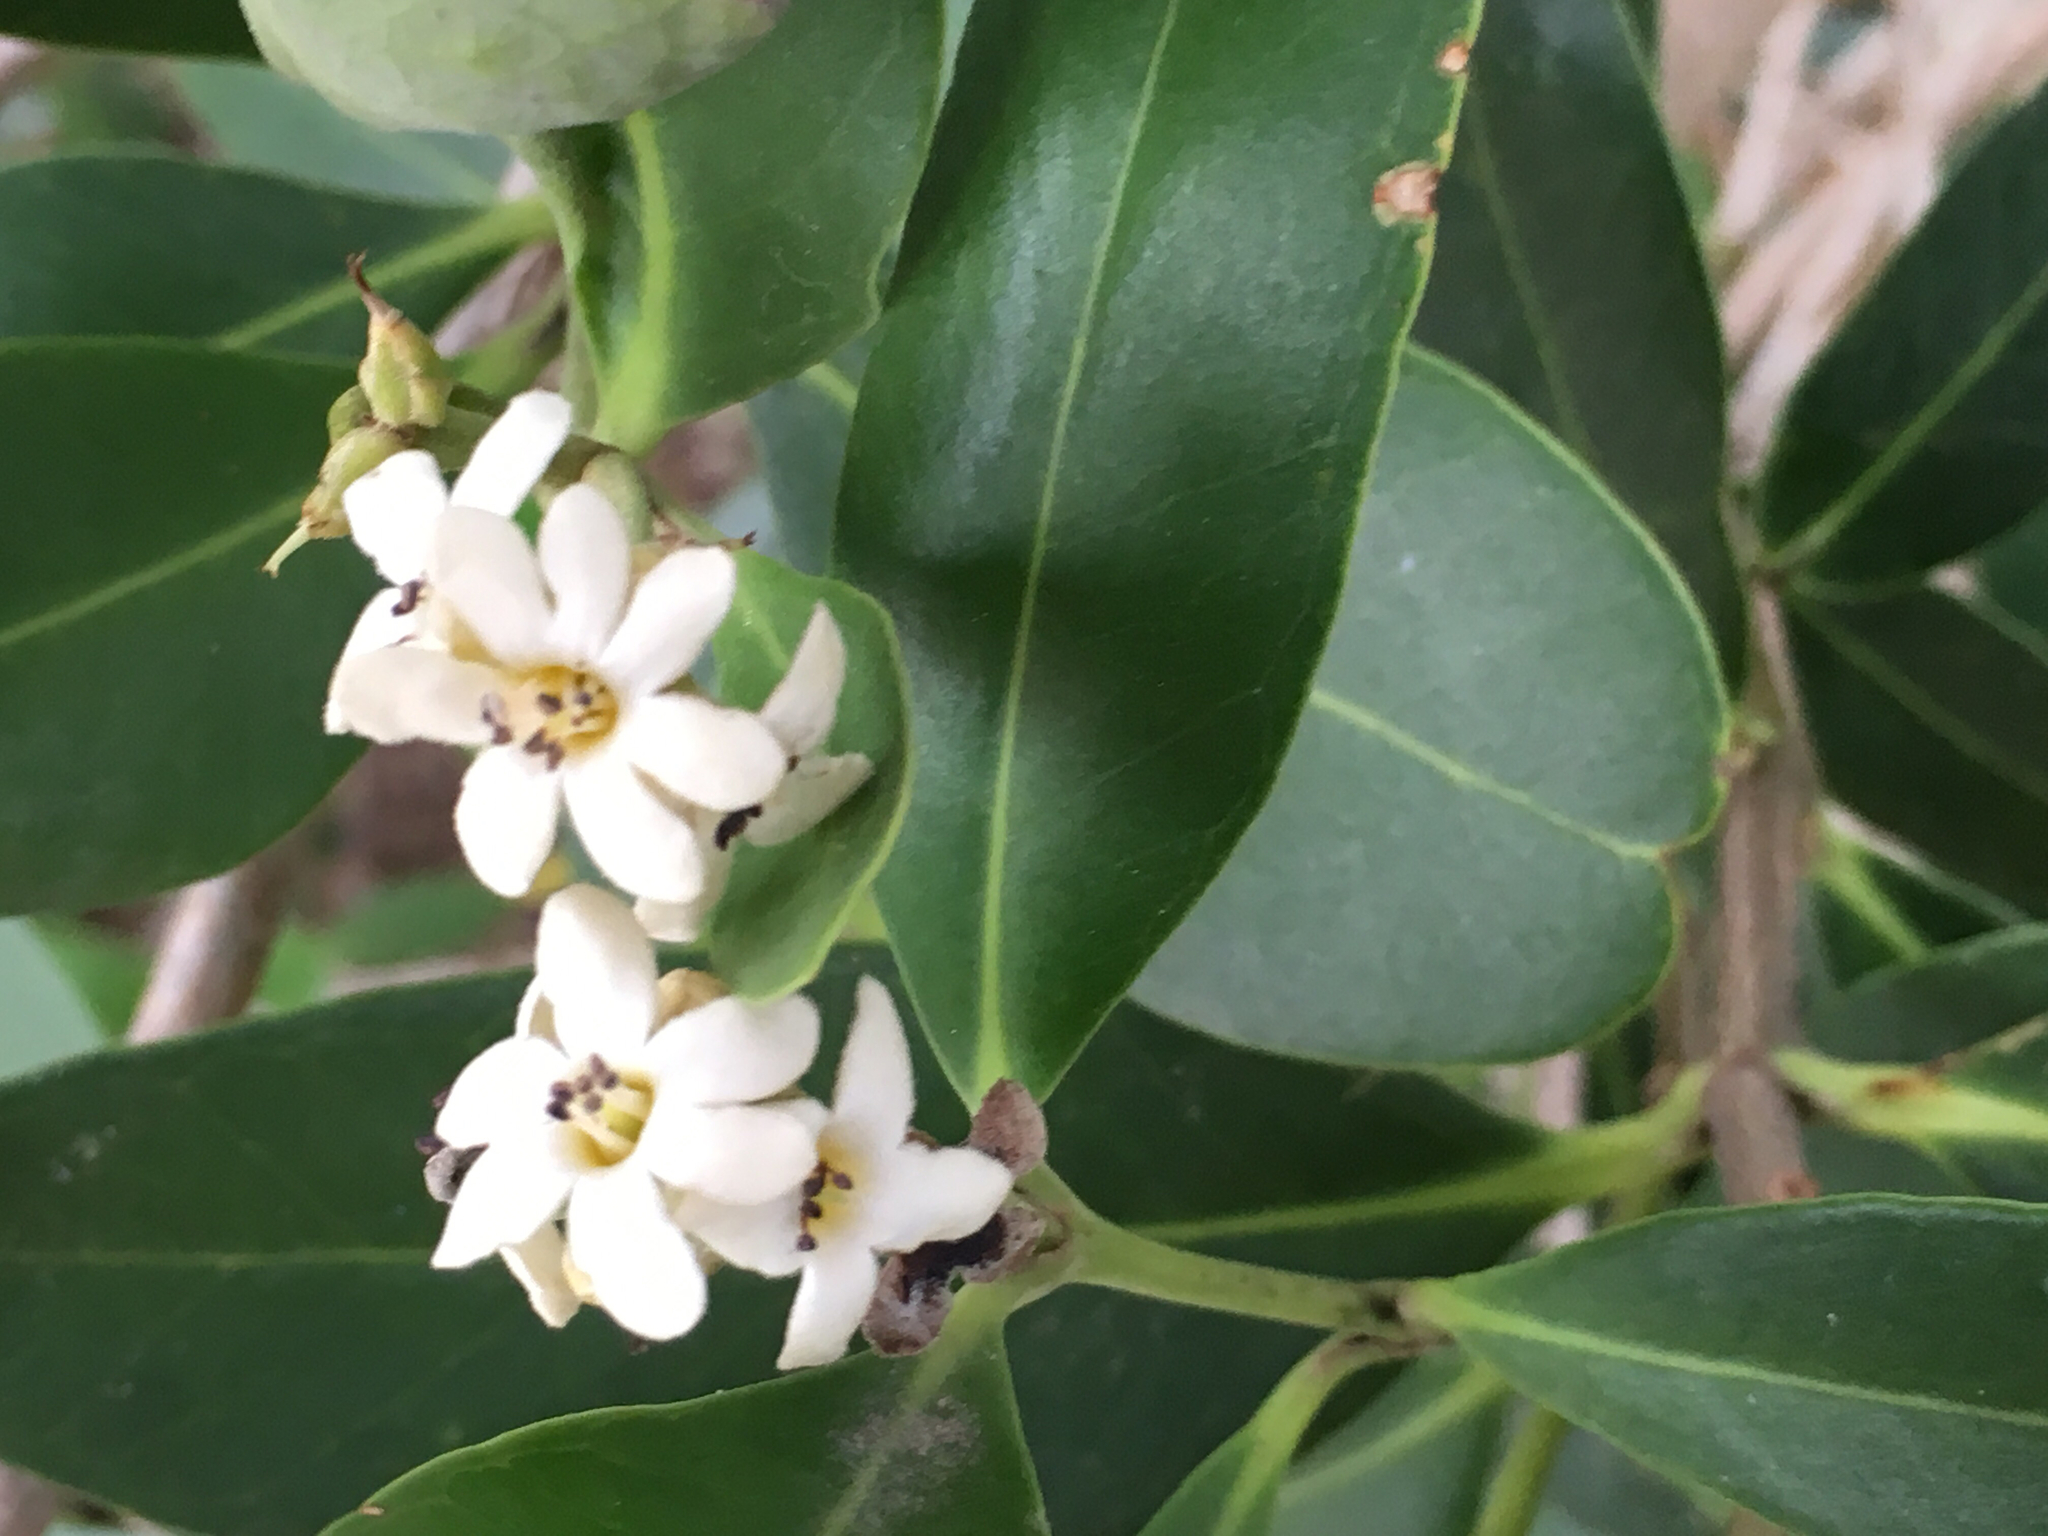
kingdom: Plantae
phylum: Tracheophyta
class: Magnoliopsida
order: Lamiales
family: Acanthaceae
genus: Avicennia
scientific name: Avicennia germinans
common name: Black mangrove
